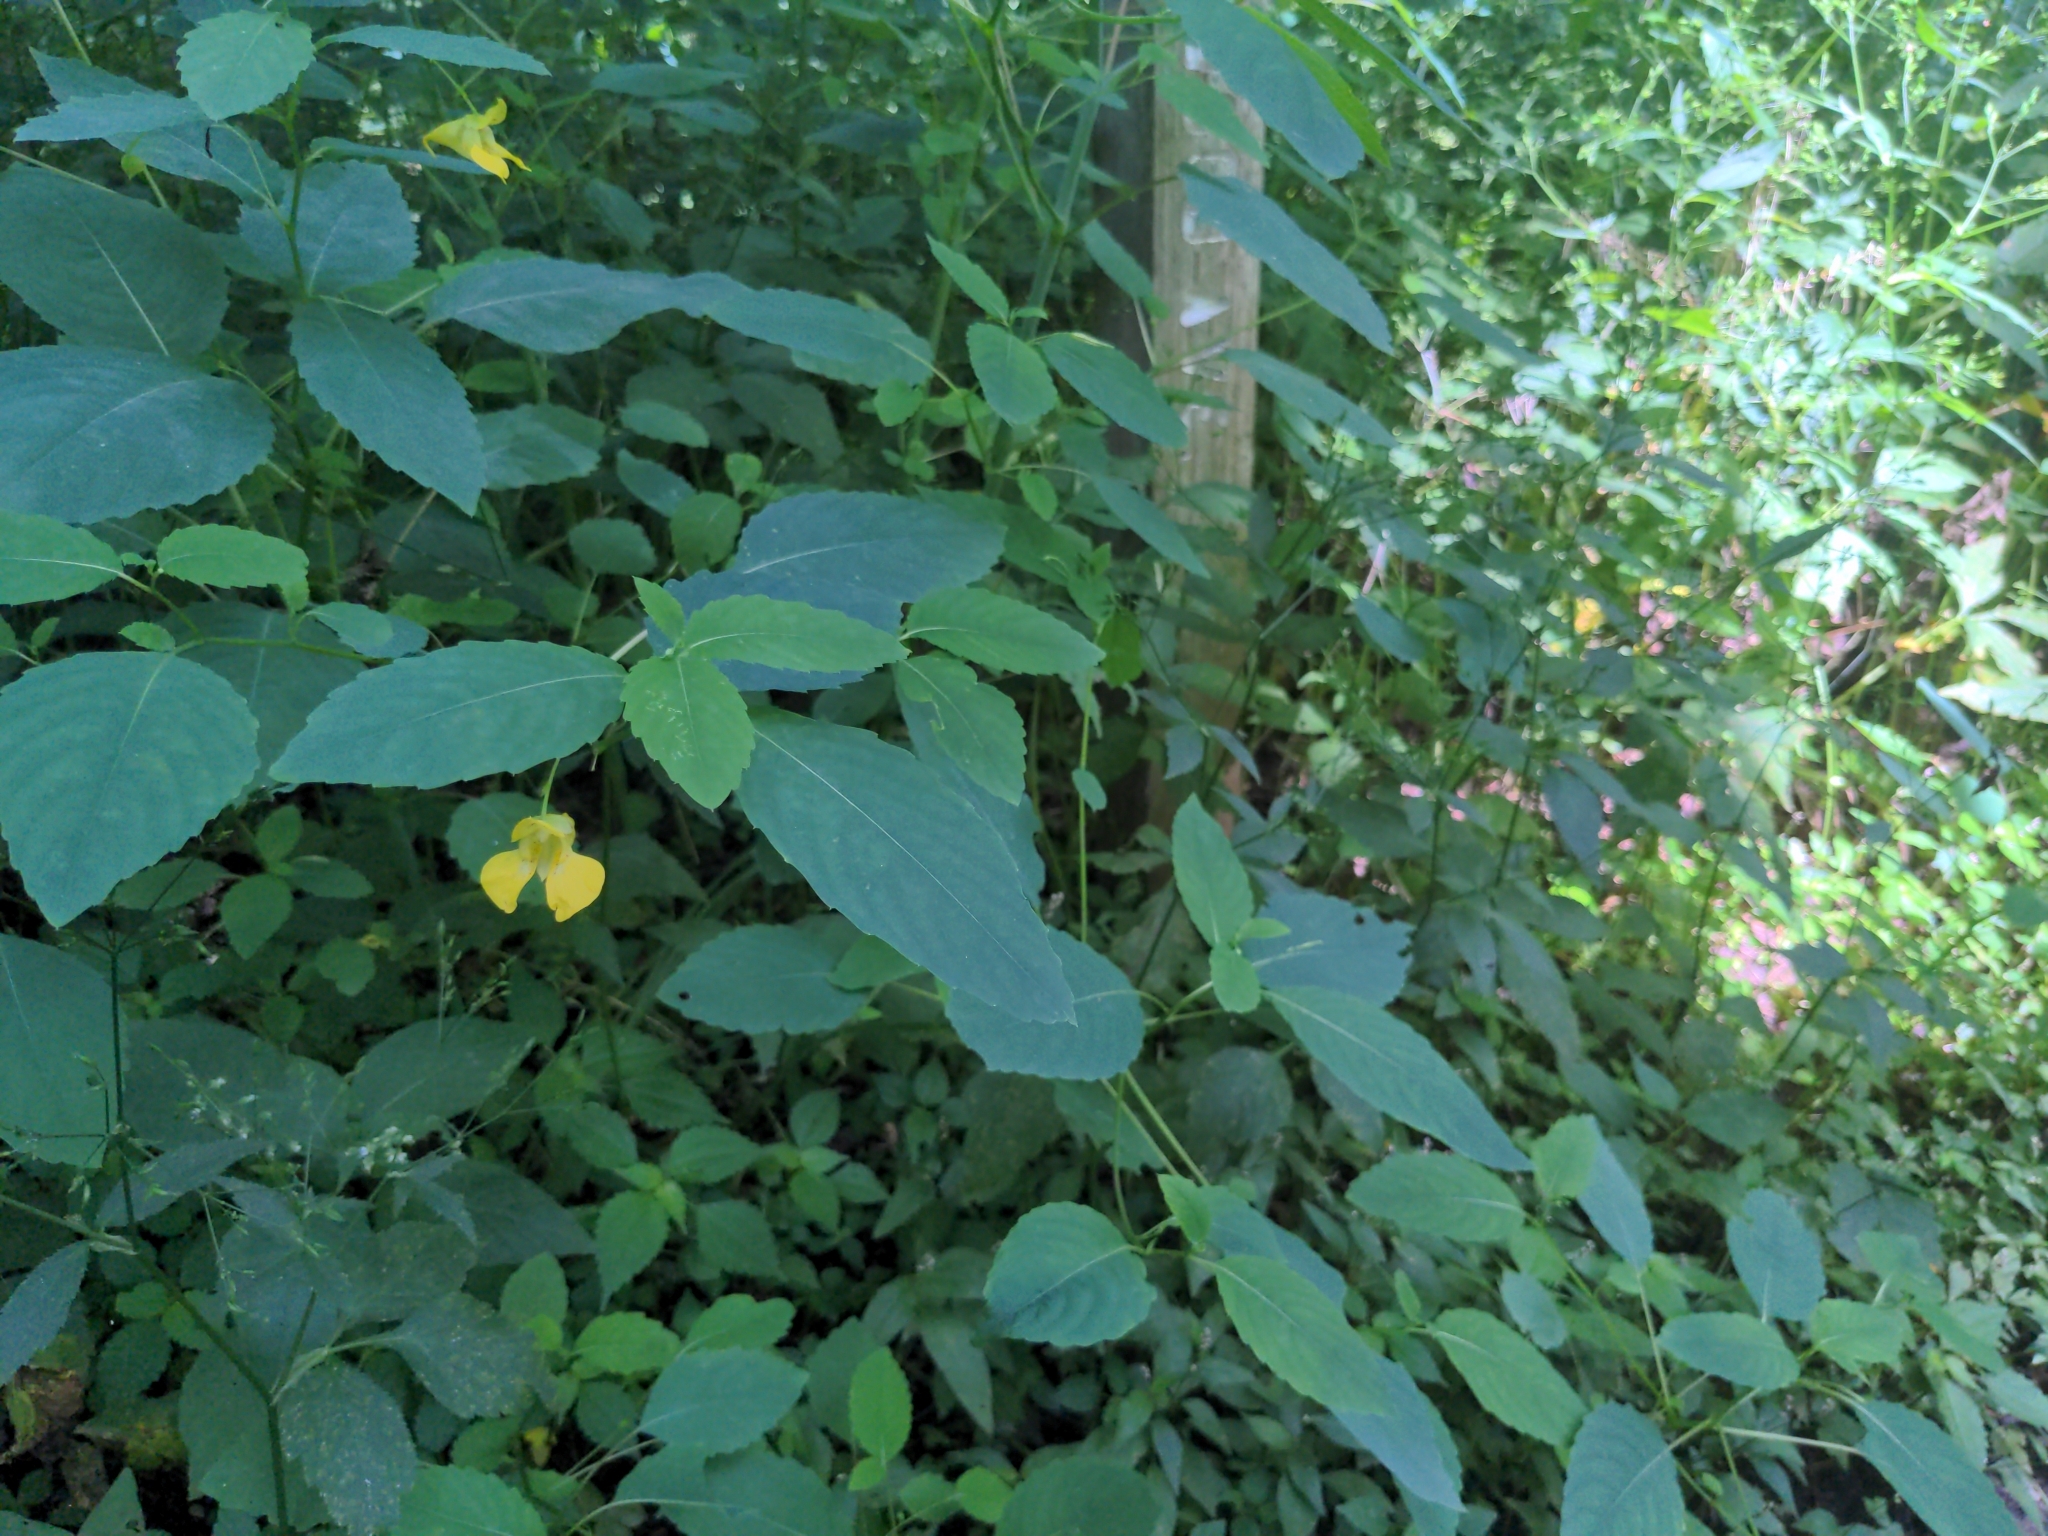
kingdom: Plantae
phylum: Tracheophyta
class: Magnoliopsida
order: Ericales
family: Balsaminaceae
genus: Impatiens
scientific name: Impatiens pallida
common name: Pale snapweed
